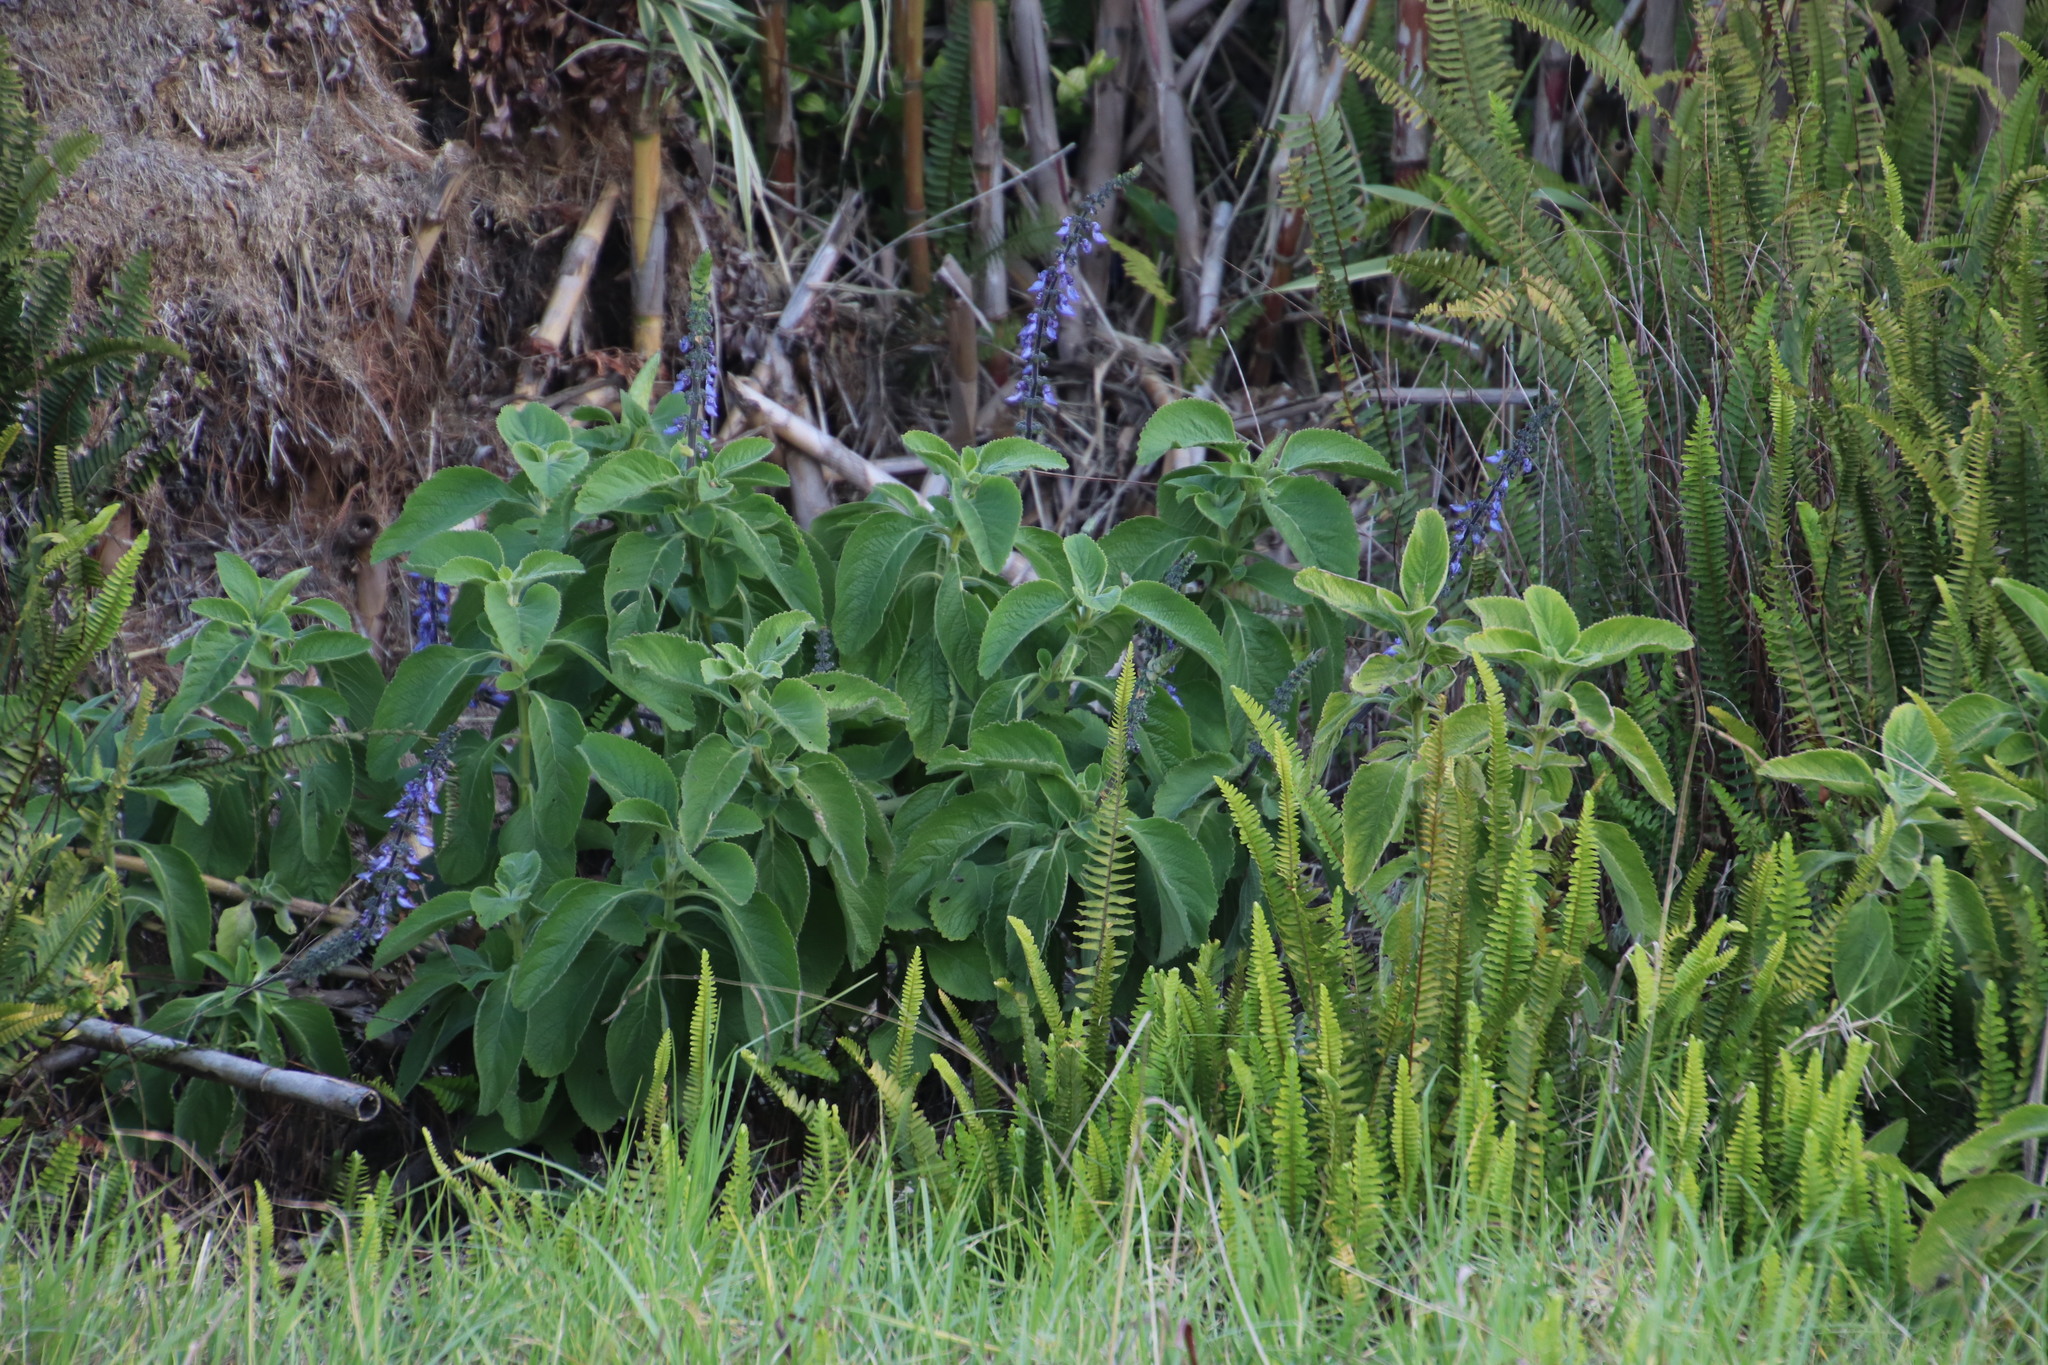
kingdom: Plantae
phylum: Tracheophyta
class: Magnoliopsida
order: Lamiales
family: Lamiaceae
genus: Coleus
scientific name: Coleus barbatus
